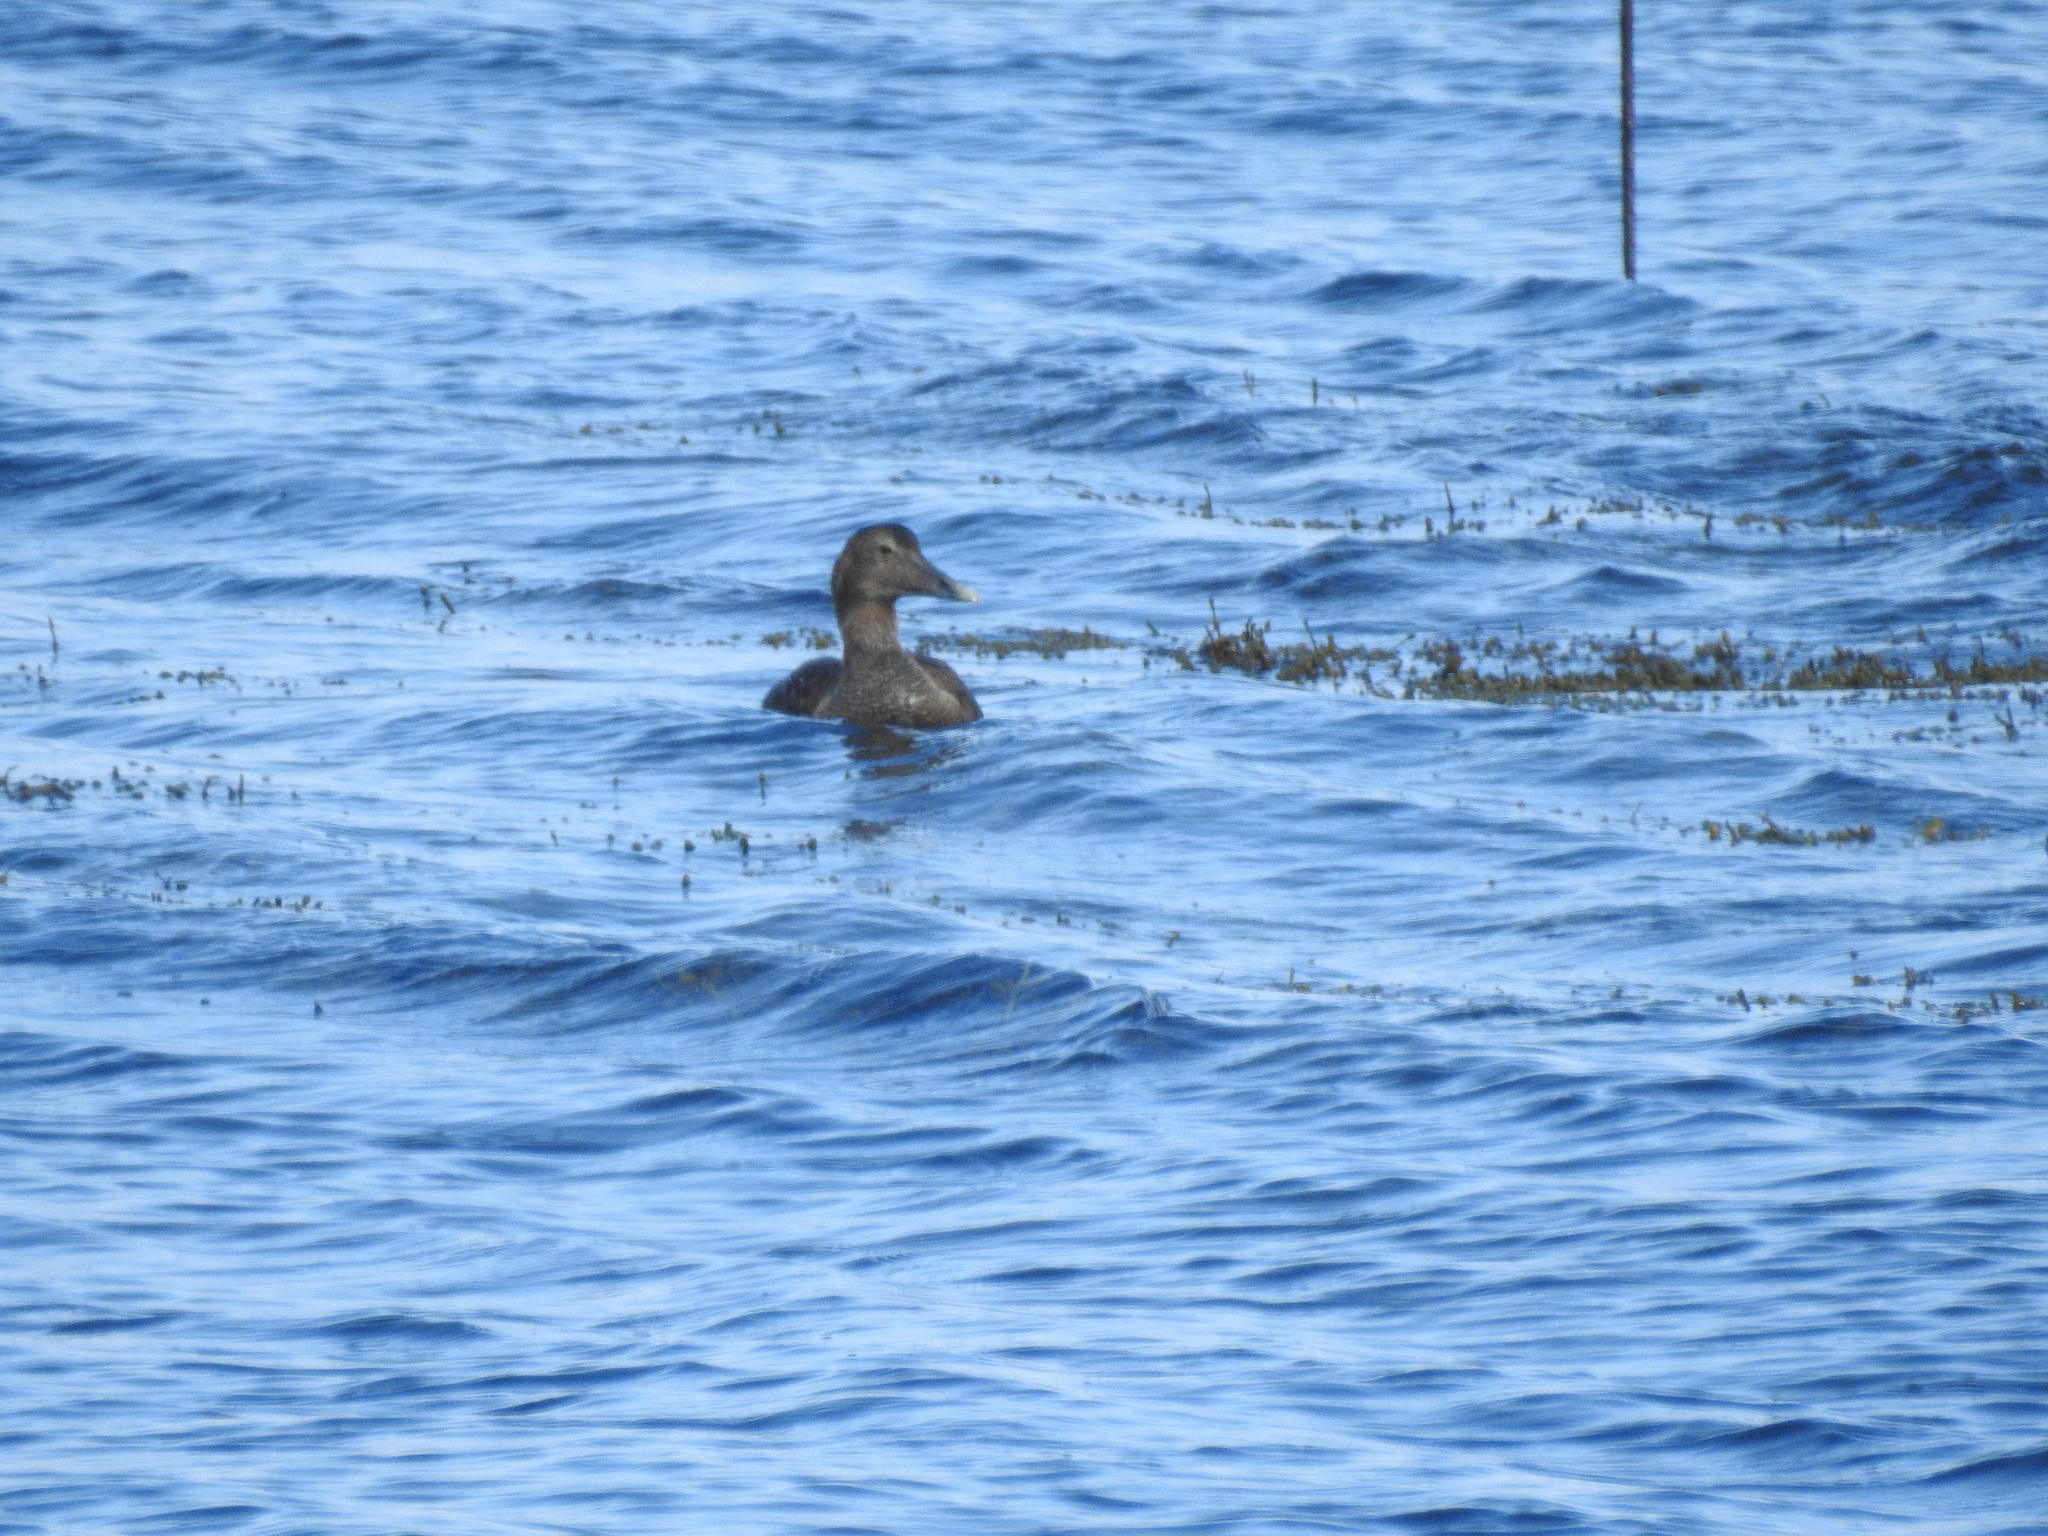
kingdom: Animalia
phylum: Chordata
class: Aves
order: Anseriformes
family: Anatidae
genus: Somateria
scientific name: Somateria mollissima
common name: Common eider
